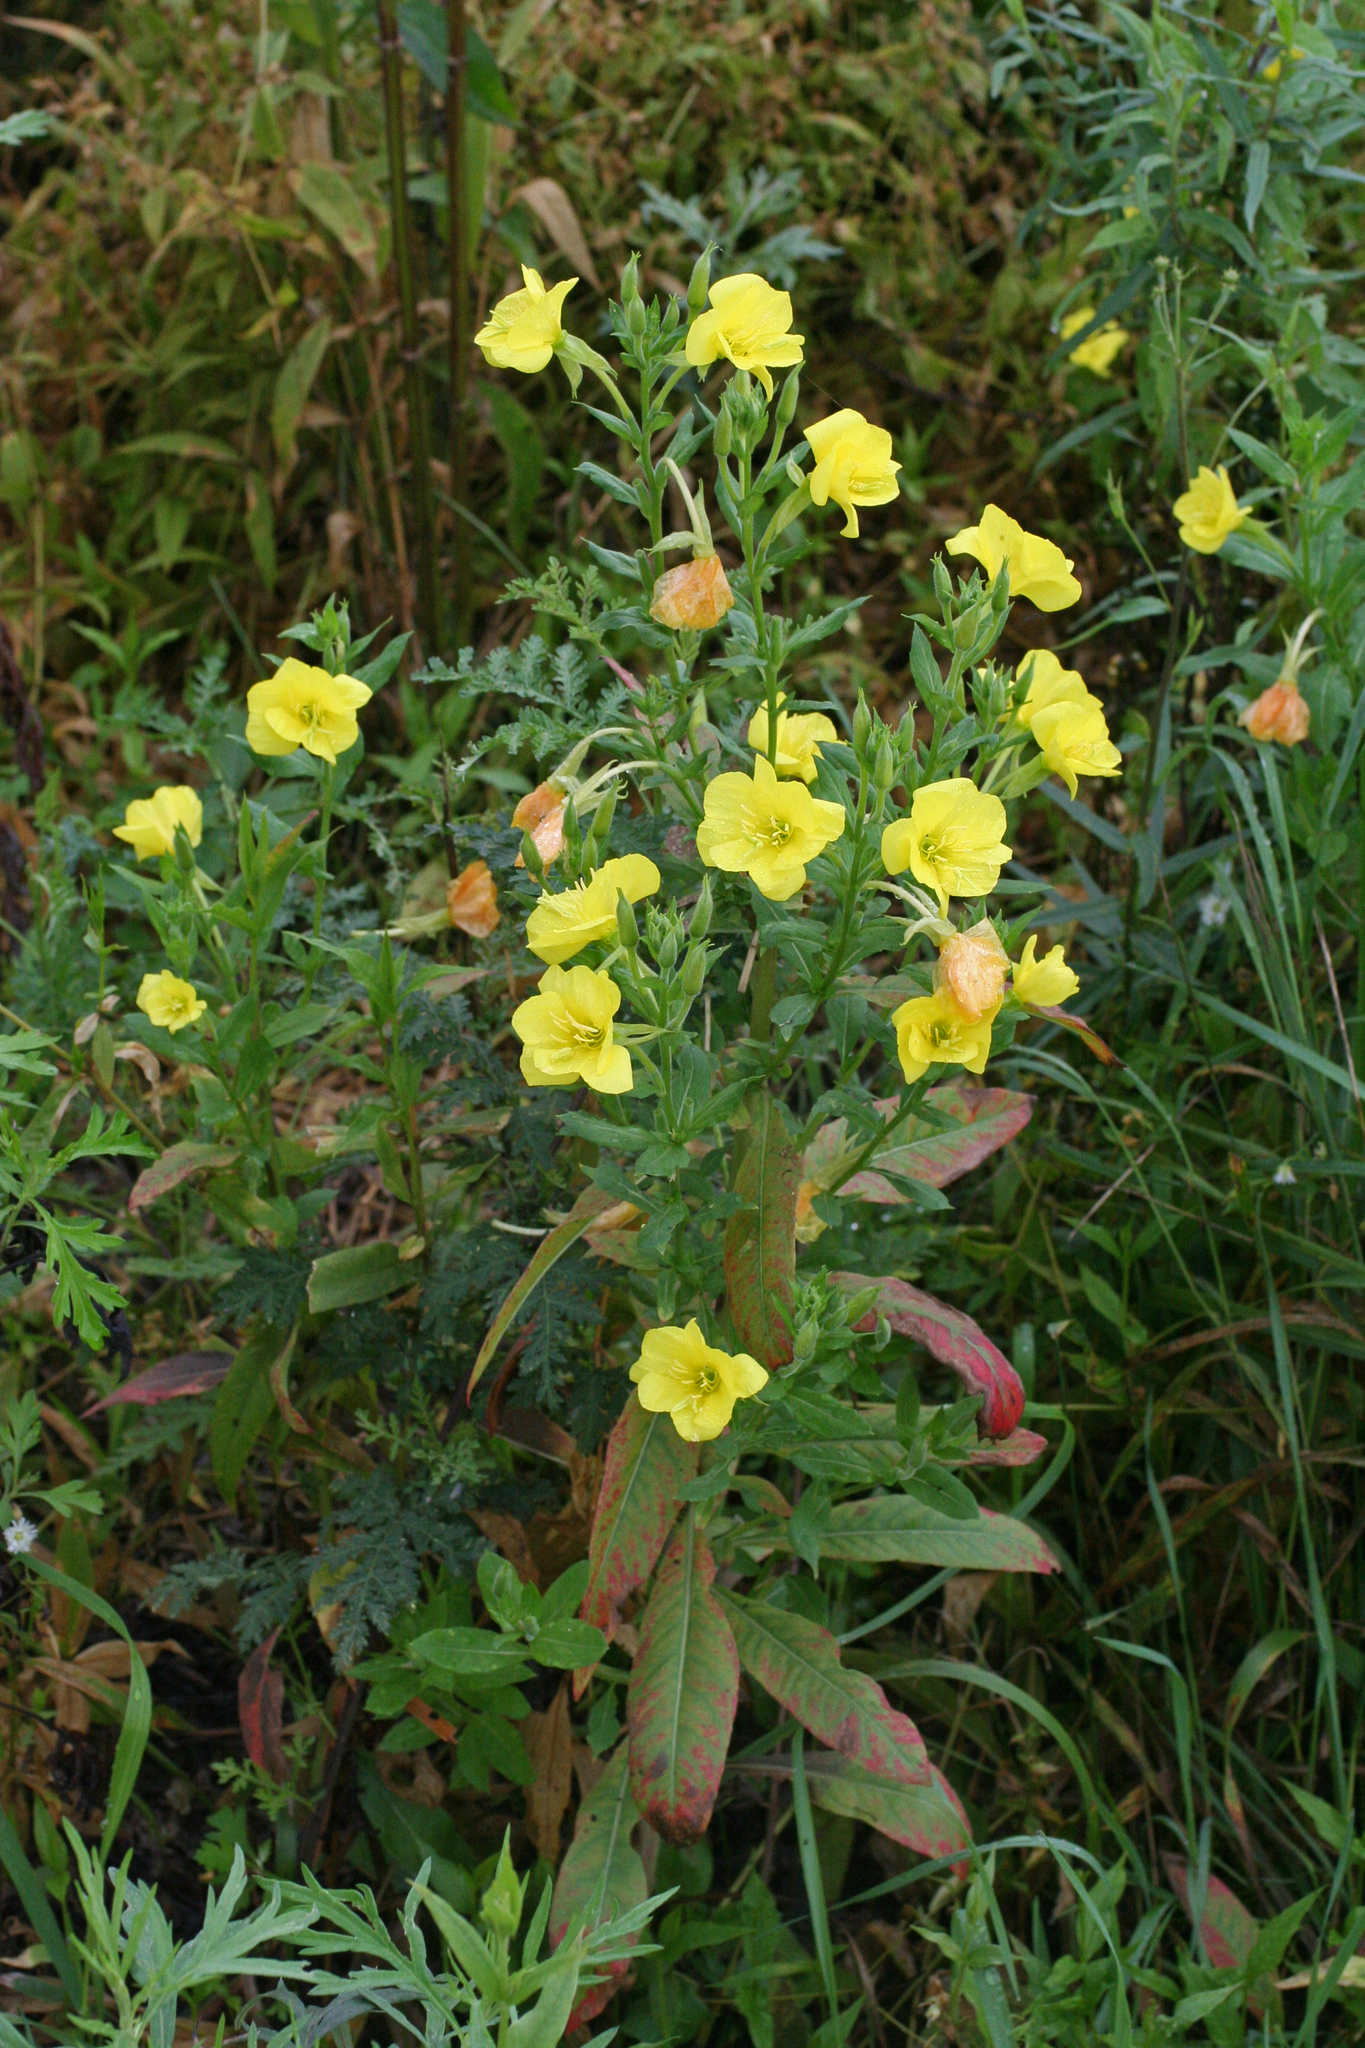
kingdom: Plantae
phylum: Tracheophyta
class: Magnoliopsida
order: Myrtales
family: Onagraceae
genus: Oenothera
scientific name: Oenothera biennis
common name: Common evening-primrose
